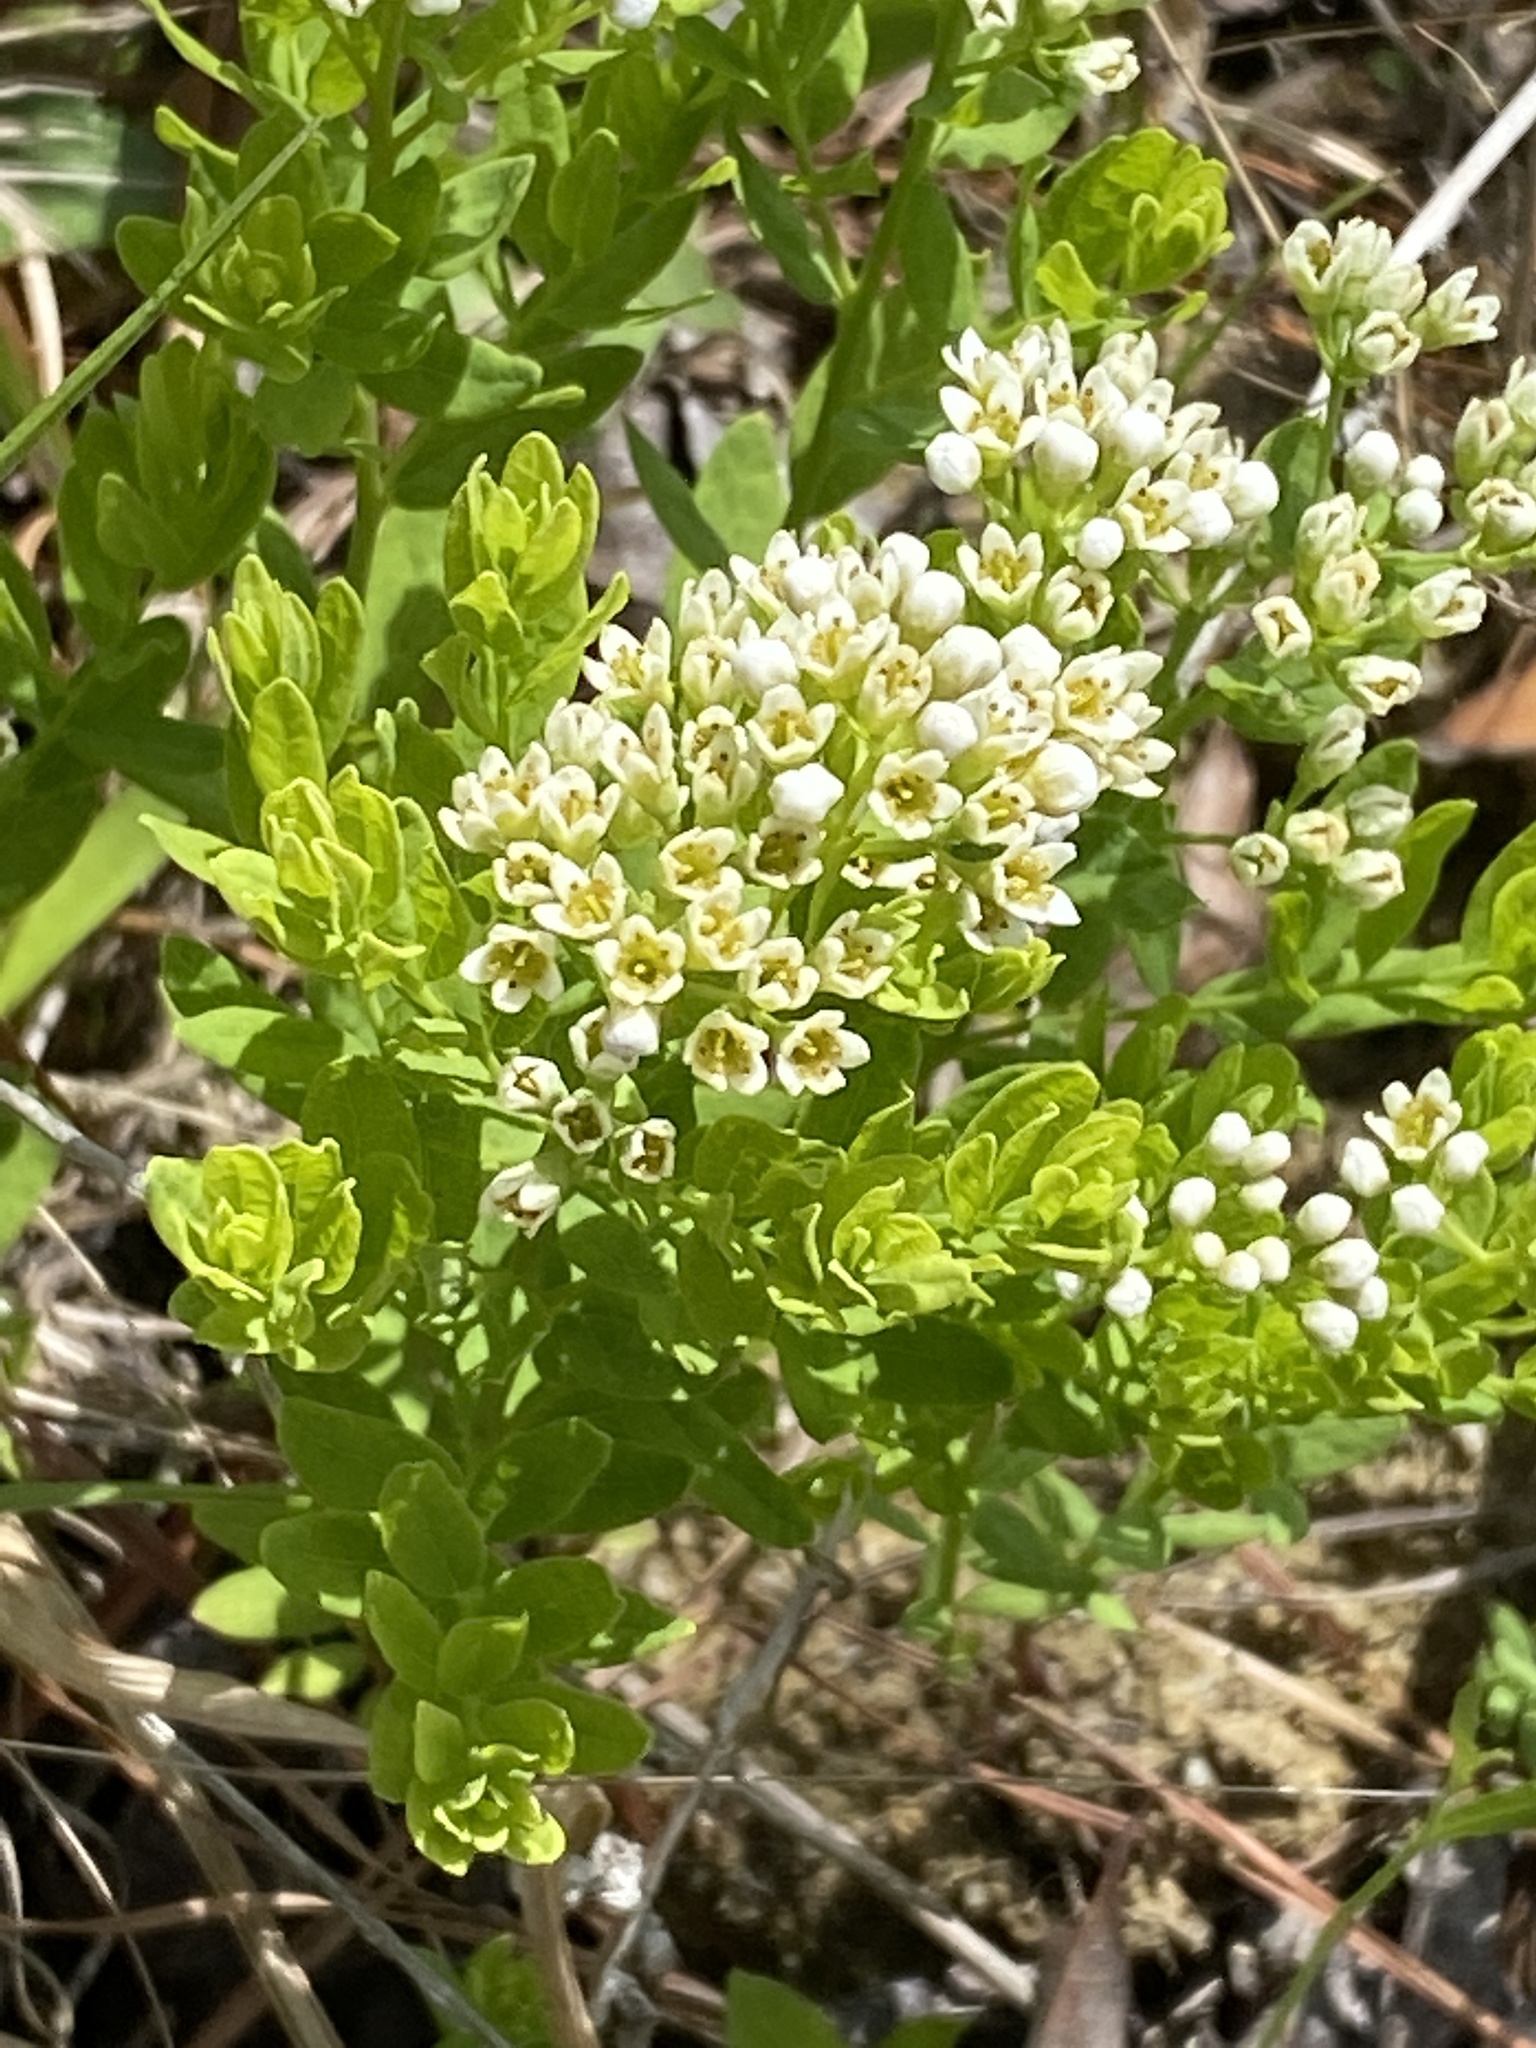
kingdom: Plantae
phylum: Tracheophyta
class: Magnoliopsida
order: Santalales
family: Comandraceae
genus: Comandra
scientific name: Comandra umbellata
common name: Bastard toadflax
